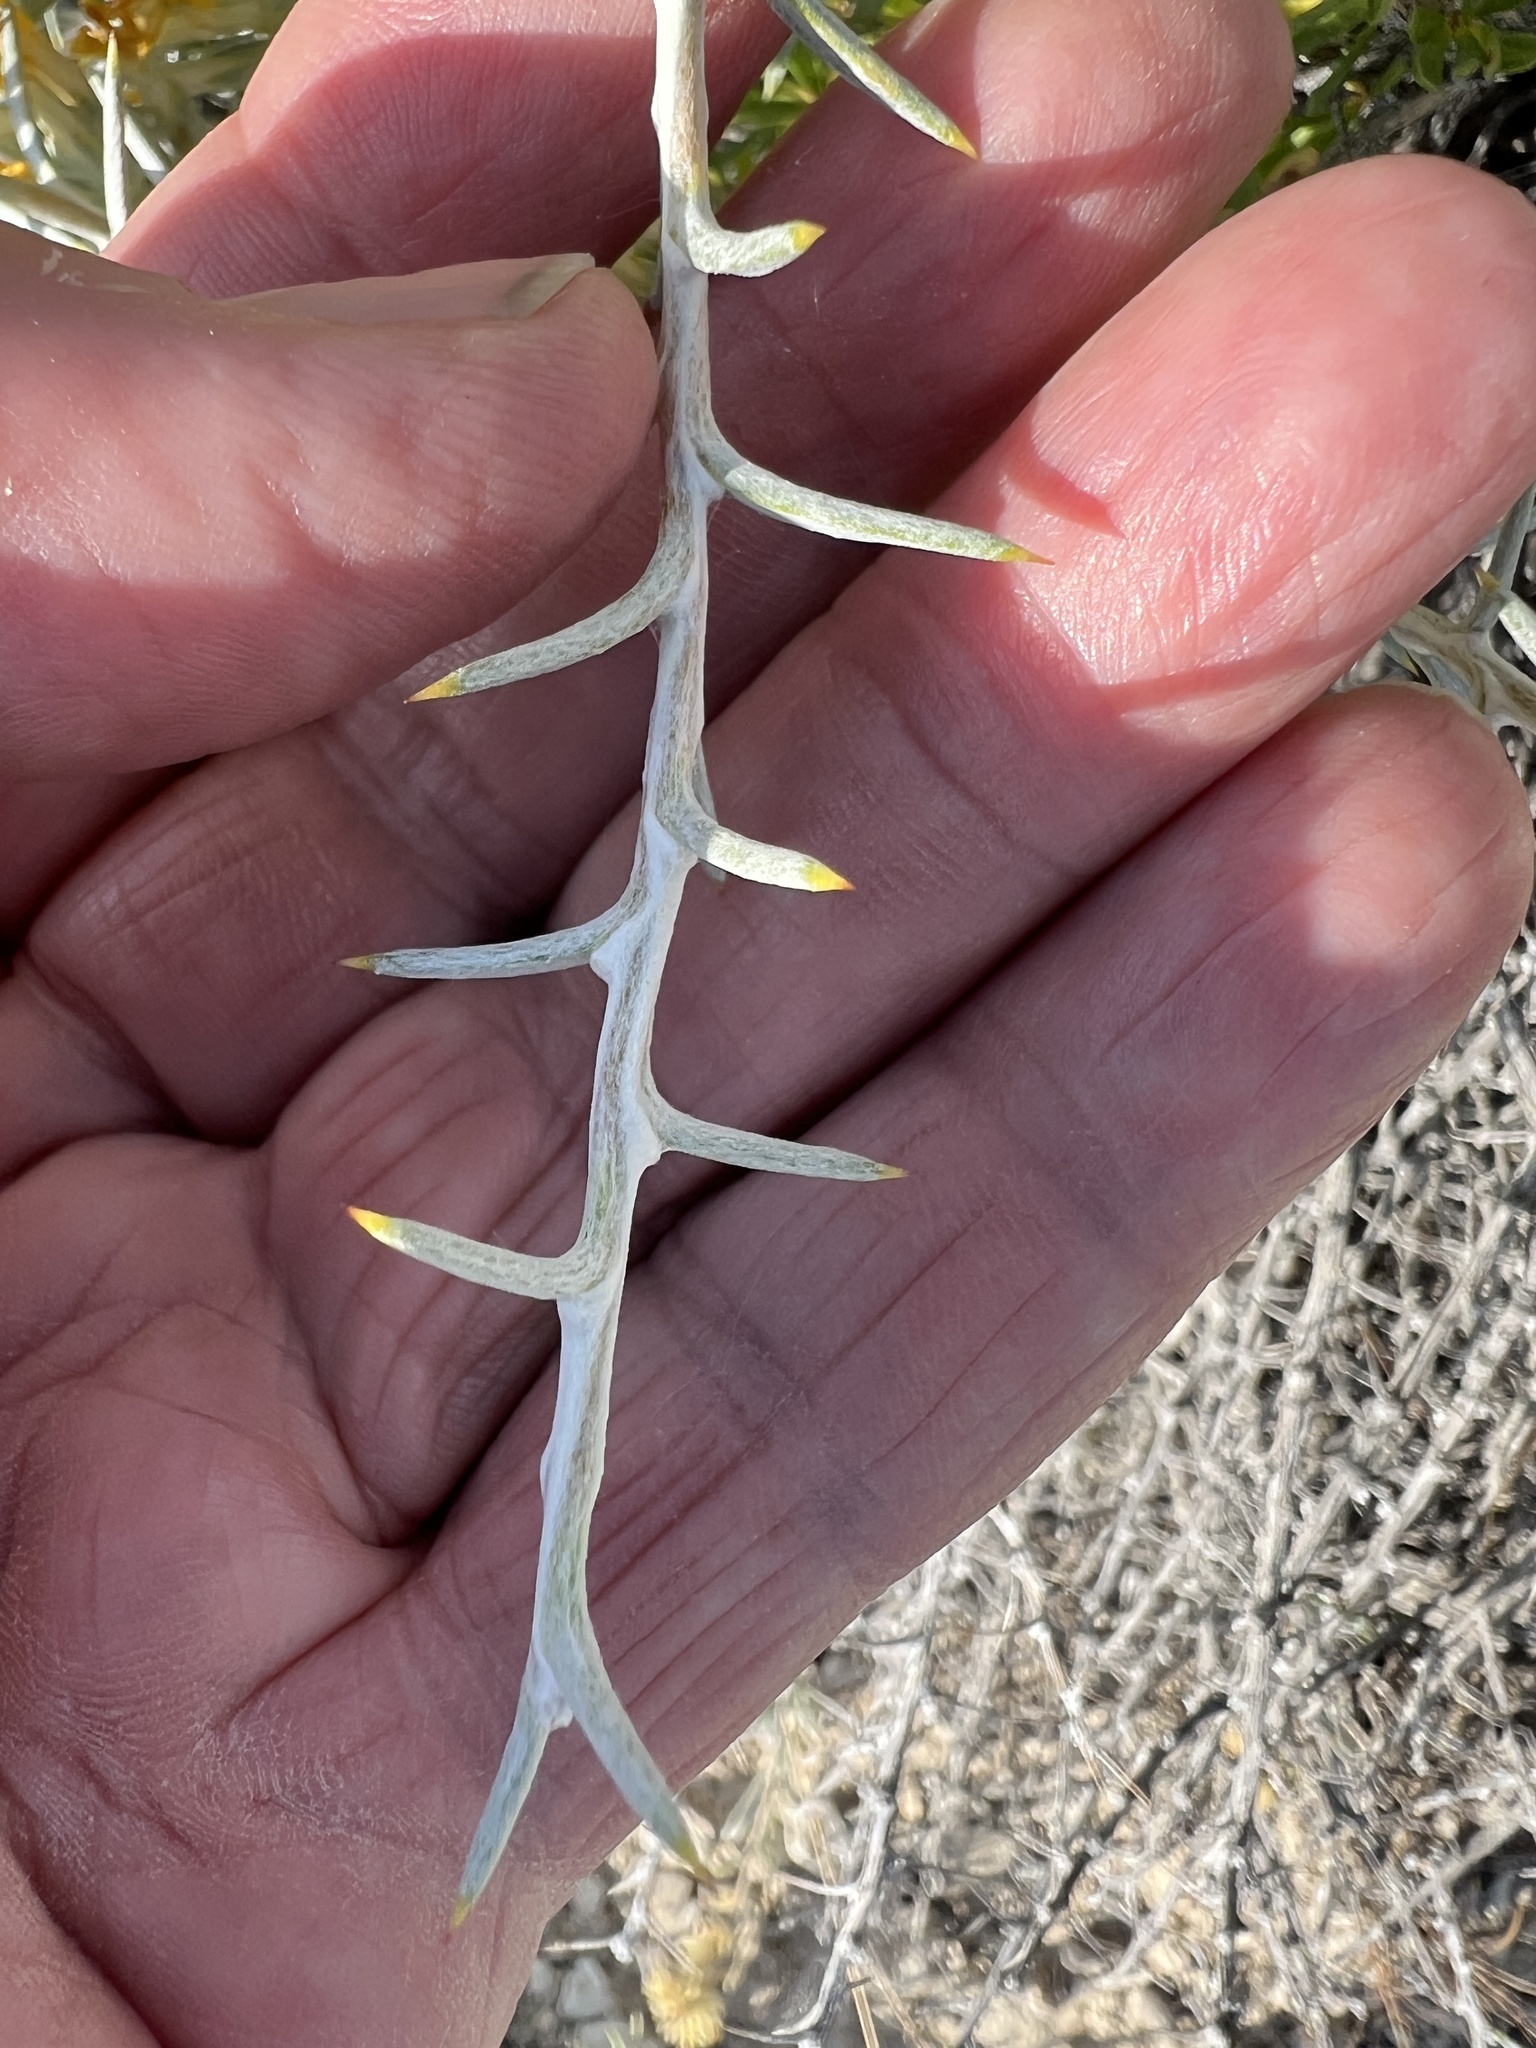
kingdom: Plantae
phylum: Tracheophyta
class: Magnoliopsida
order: Asterales
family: Asteraceae
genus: Tetradymia
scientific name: Tetradymia nuttallii
